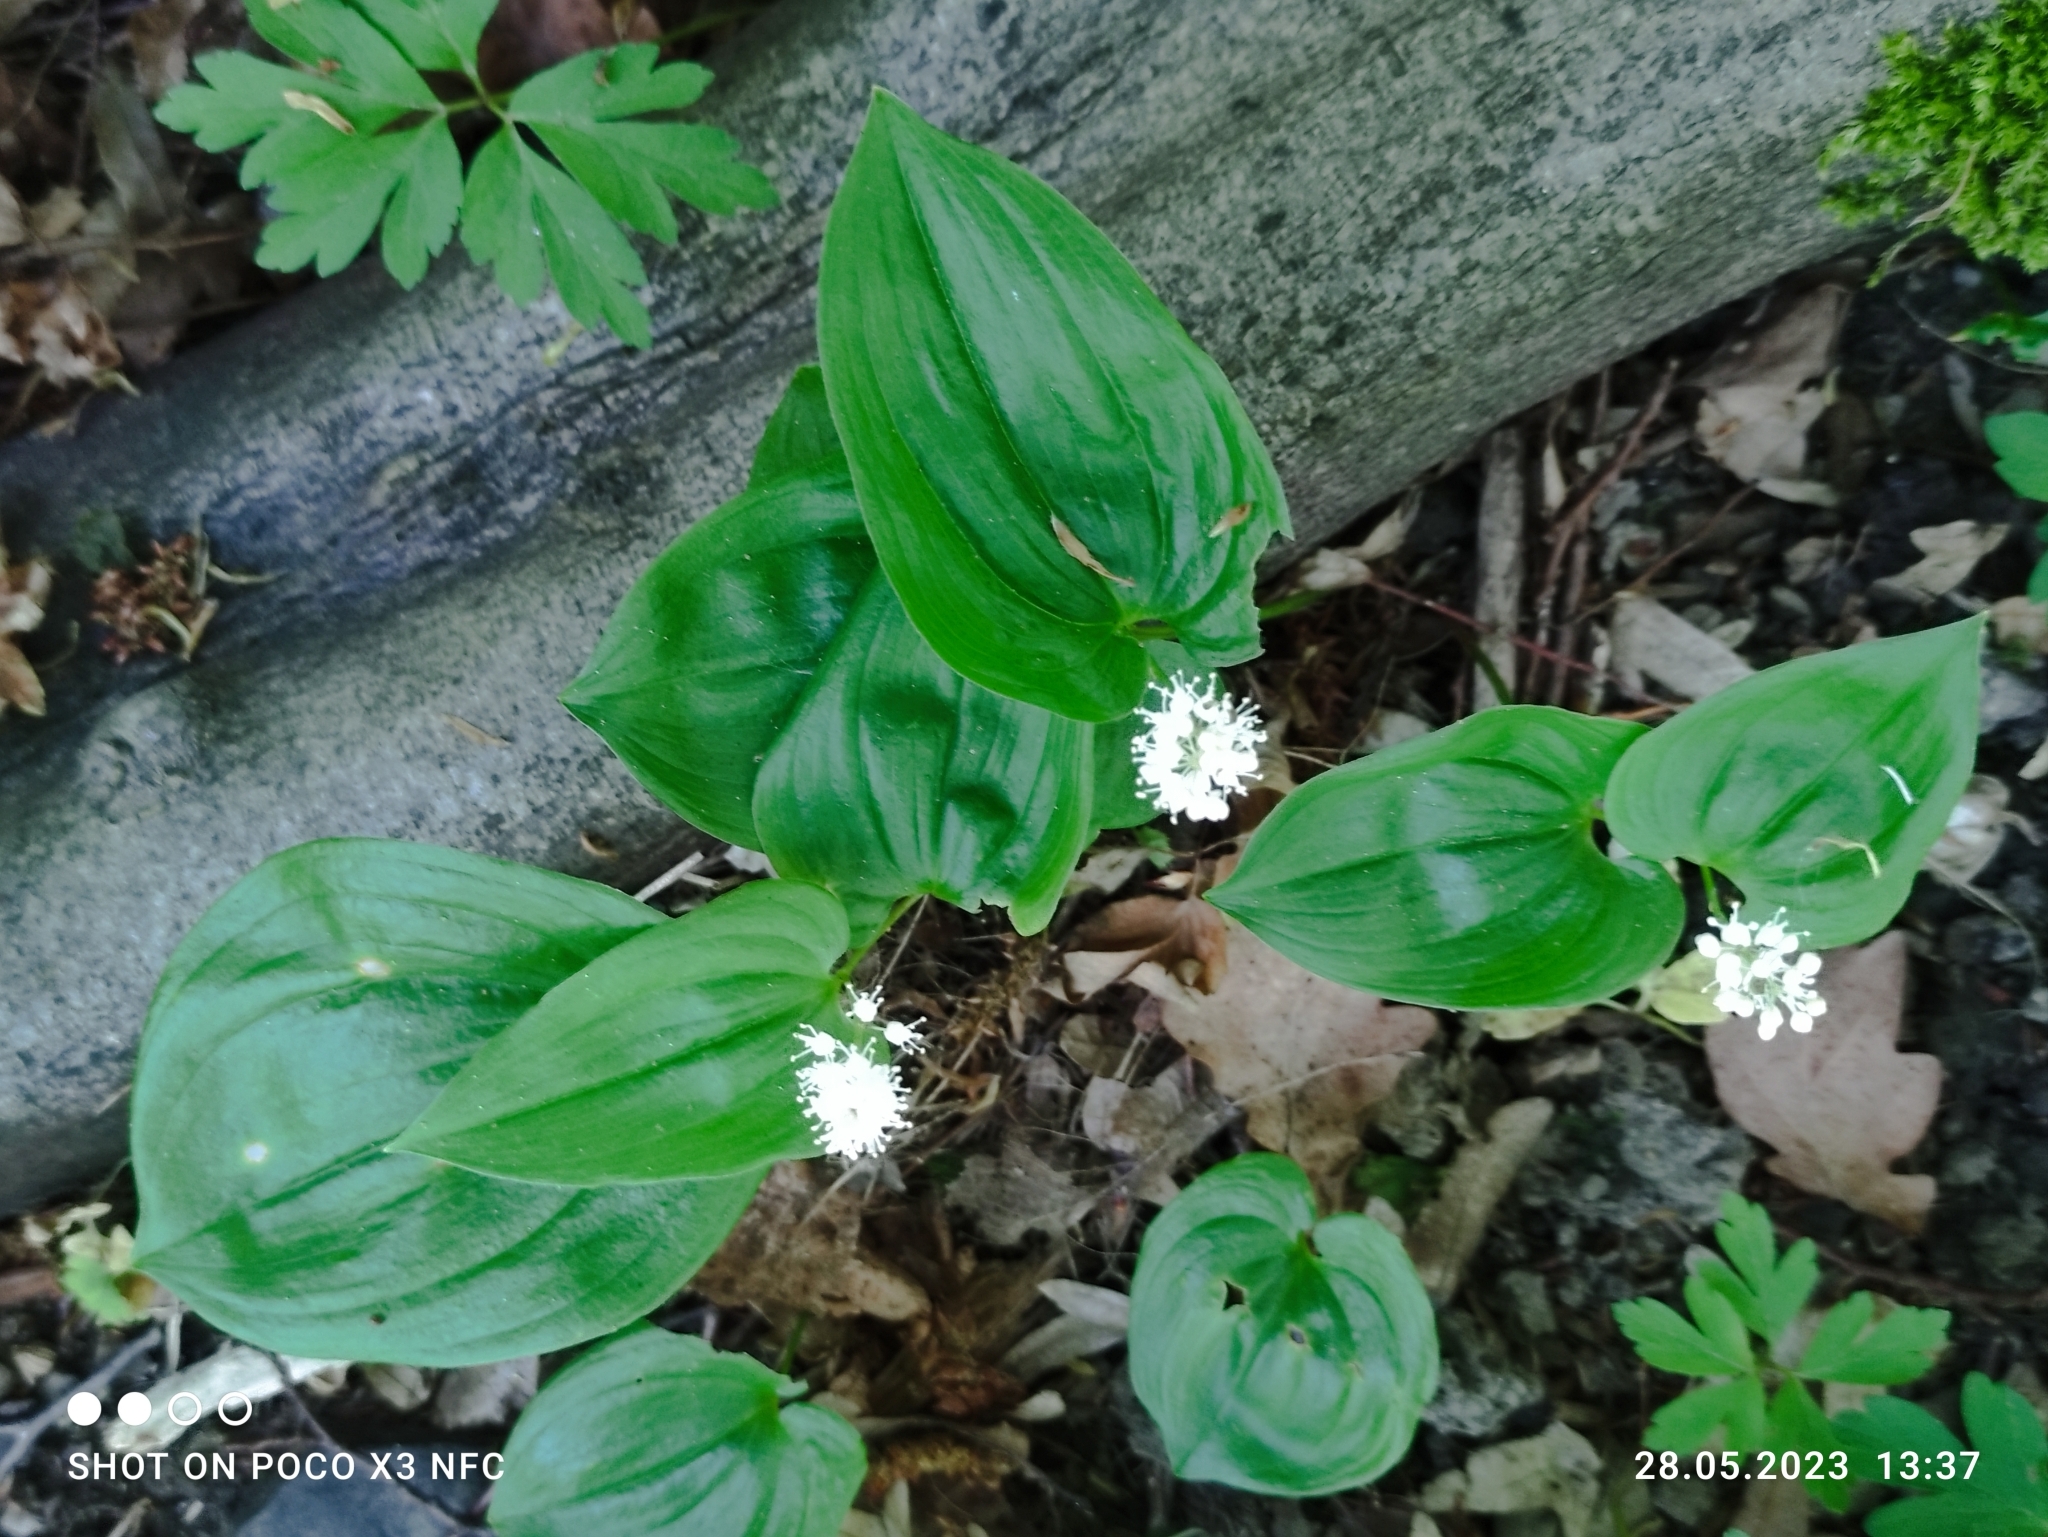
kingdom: Plantae
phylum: Tracheophyta
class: Liliopsida
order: Asparagales
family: Asparagaceae
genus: Maianthemum
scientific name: Maianthemum bifolium
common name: May lily
